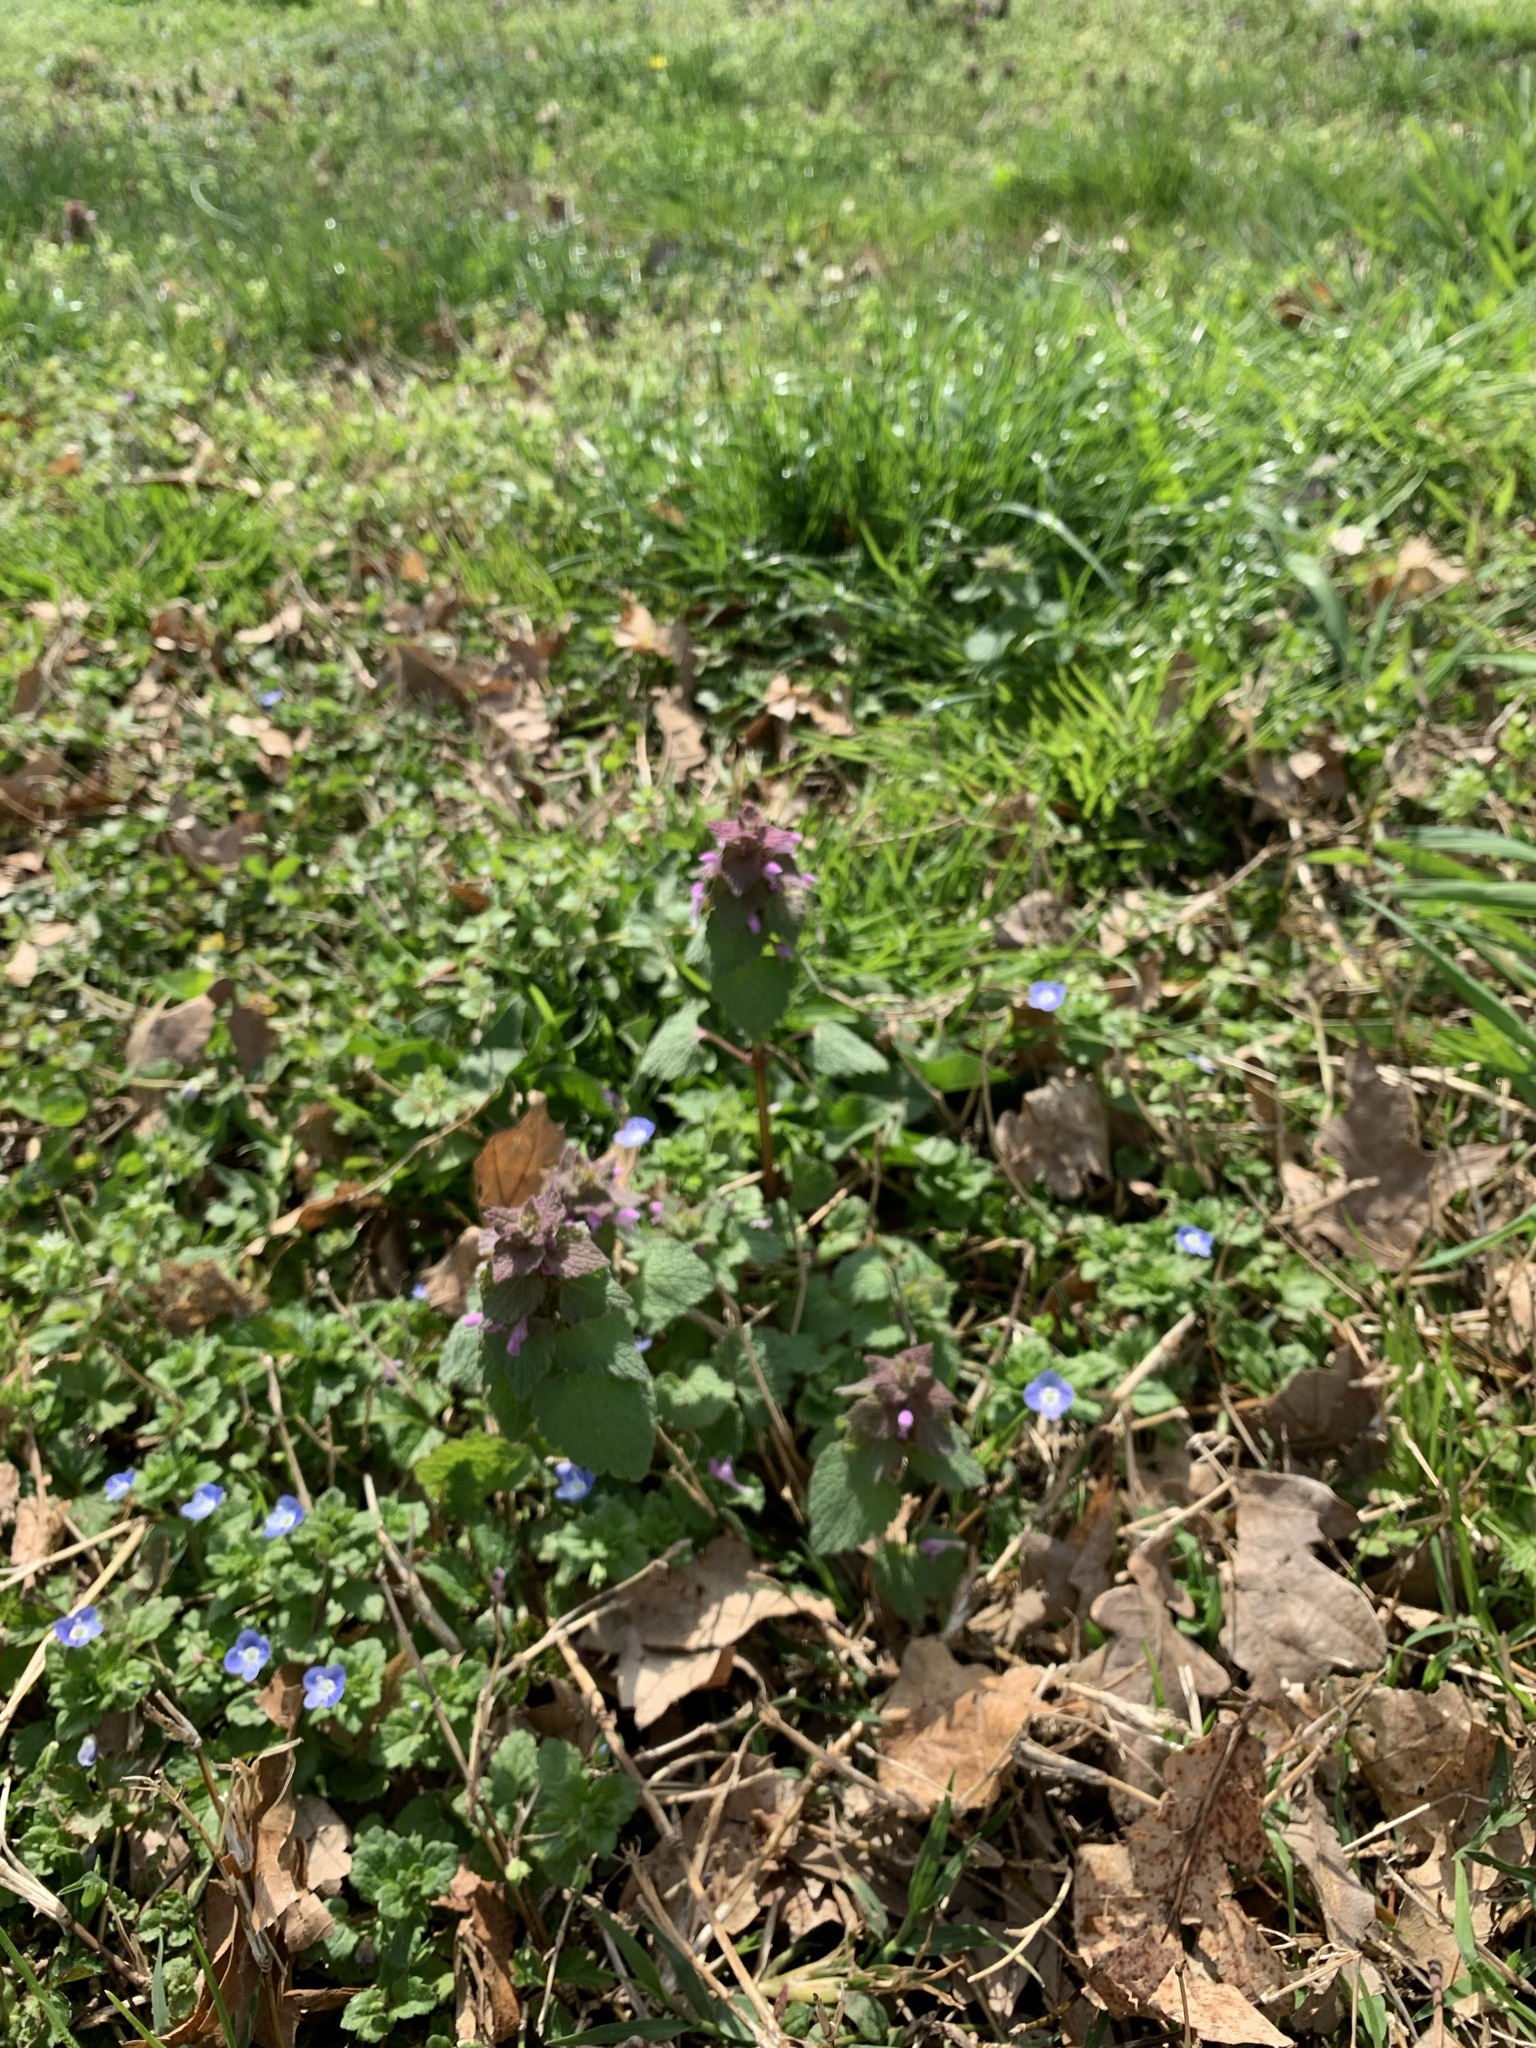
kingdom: Plantae
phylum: Tracheophyta
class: Magnoliopsida
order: Lamiales
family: Lamiaceae
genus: Lamium
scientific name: Lamium purpureum
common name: Red dead-nettle
